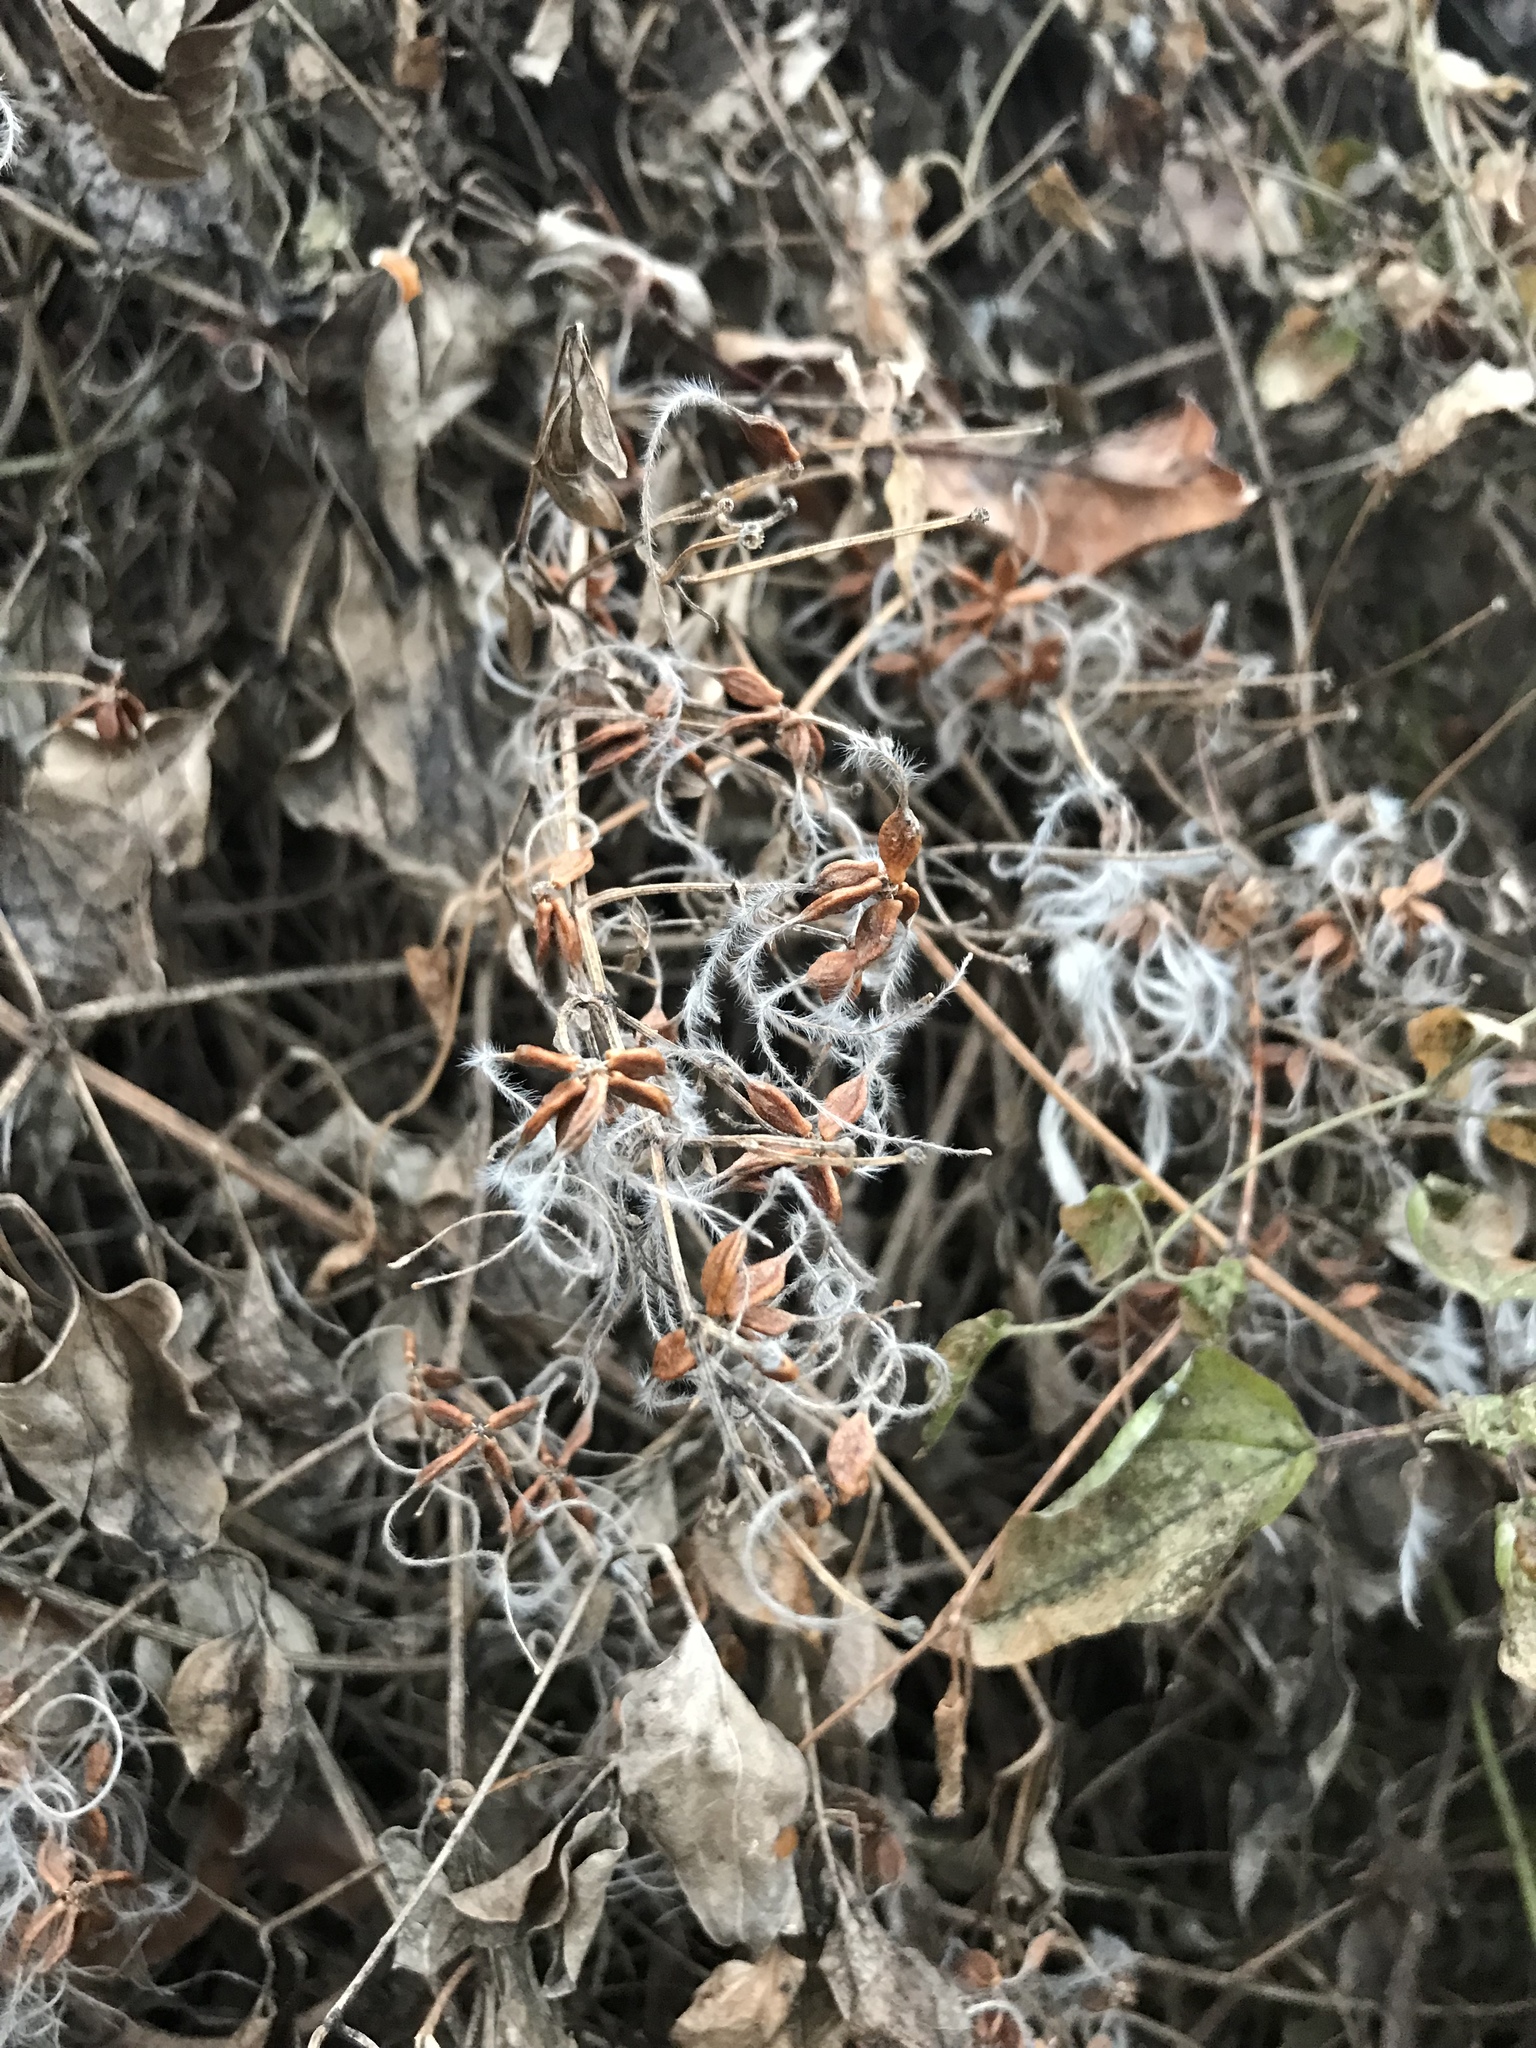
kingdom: Plantae
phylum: Tracheophyta
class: Magnoliopsida
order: Ranunculales
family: Ranunculaceae
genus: Clematis
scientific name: Clematis virginiana
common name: Virgin's-bower
